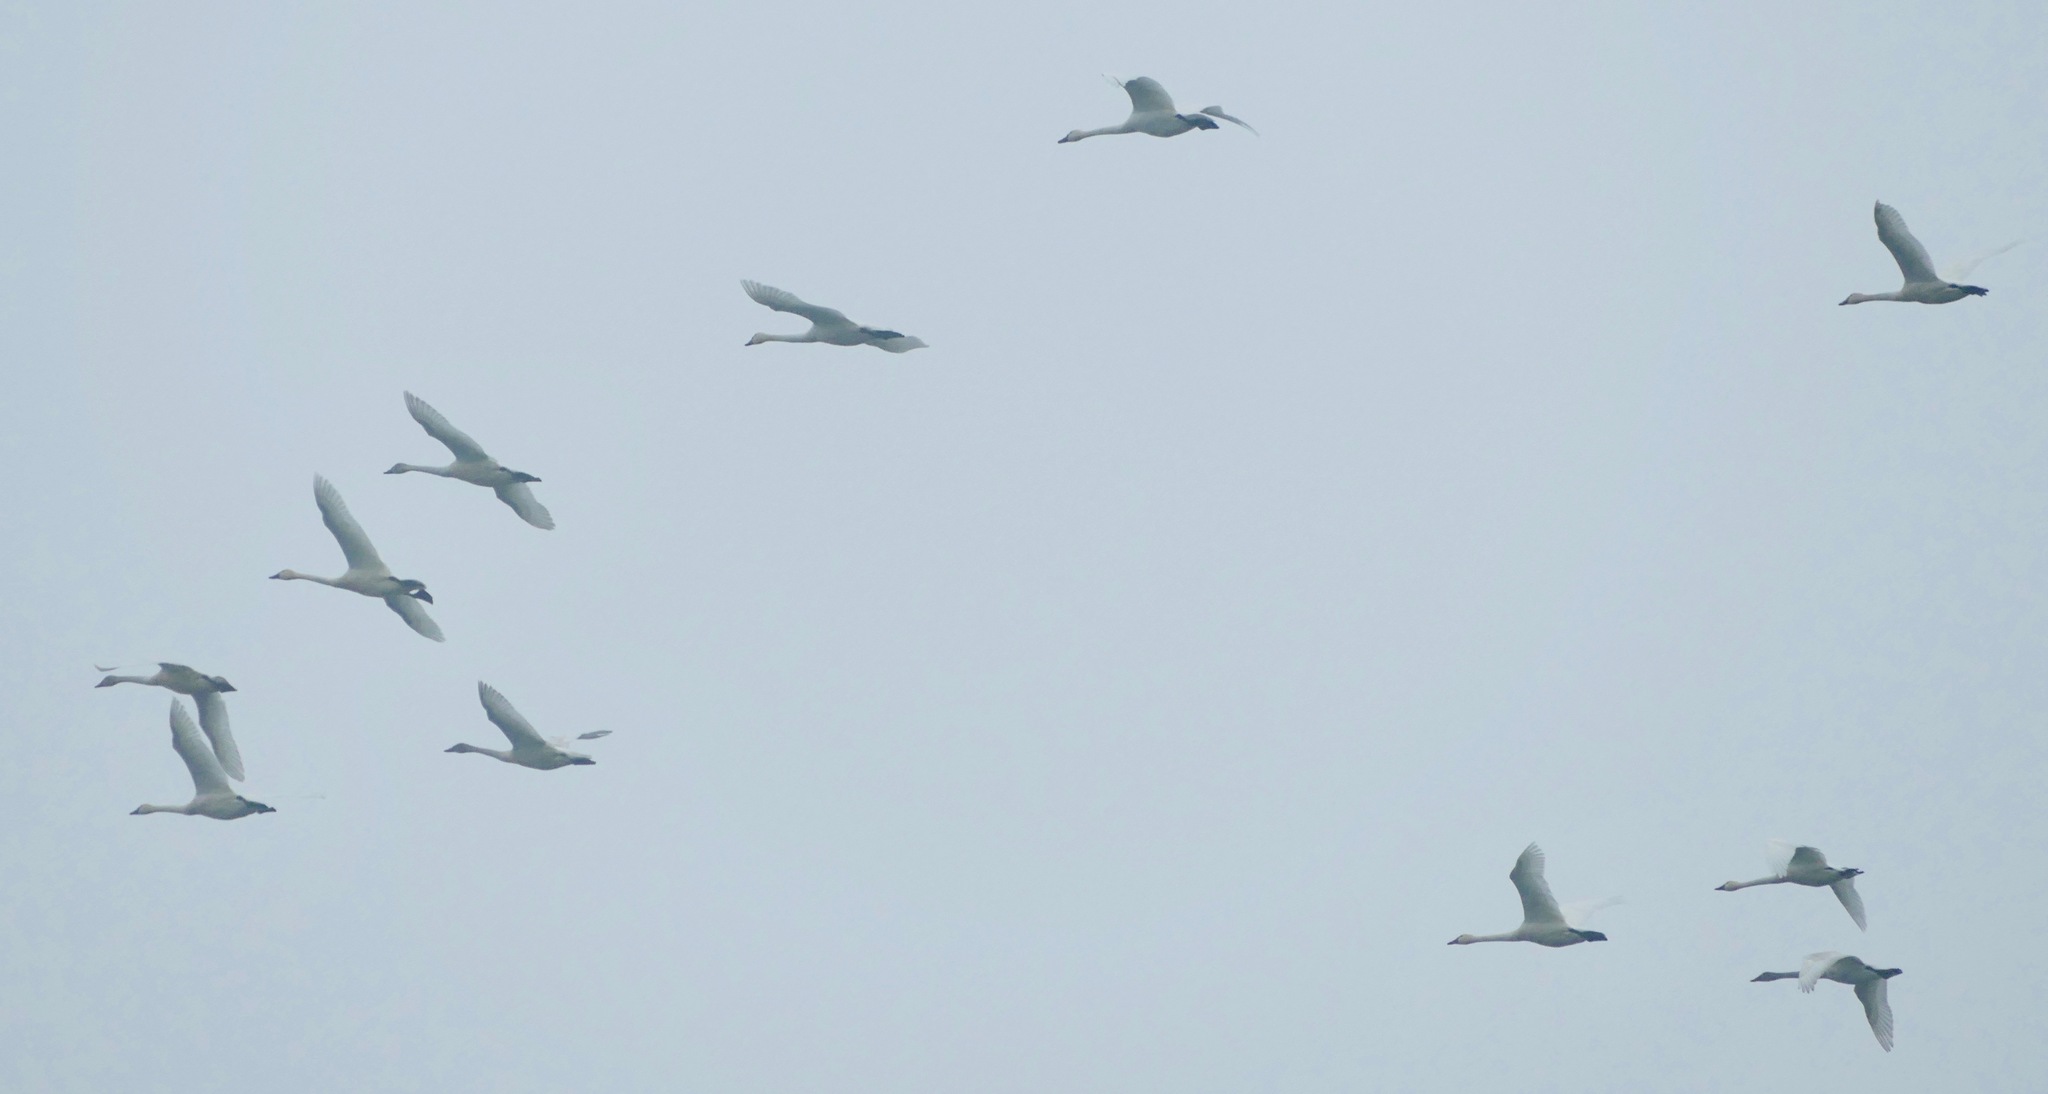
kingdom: Animalia
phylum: Chordata
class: Aves
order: Anseriformes
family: Anatidae
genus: Cygnus
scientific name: Cygnus columbianus
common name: Tundra swan
